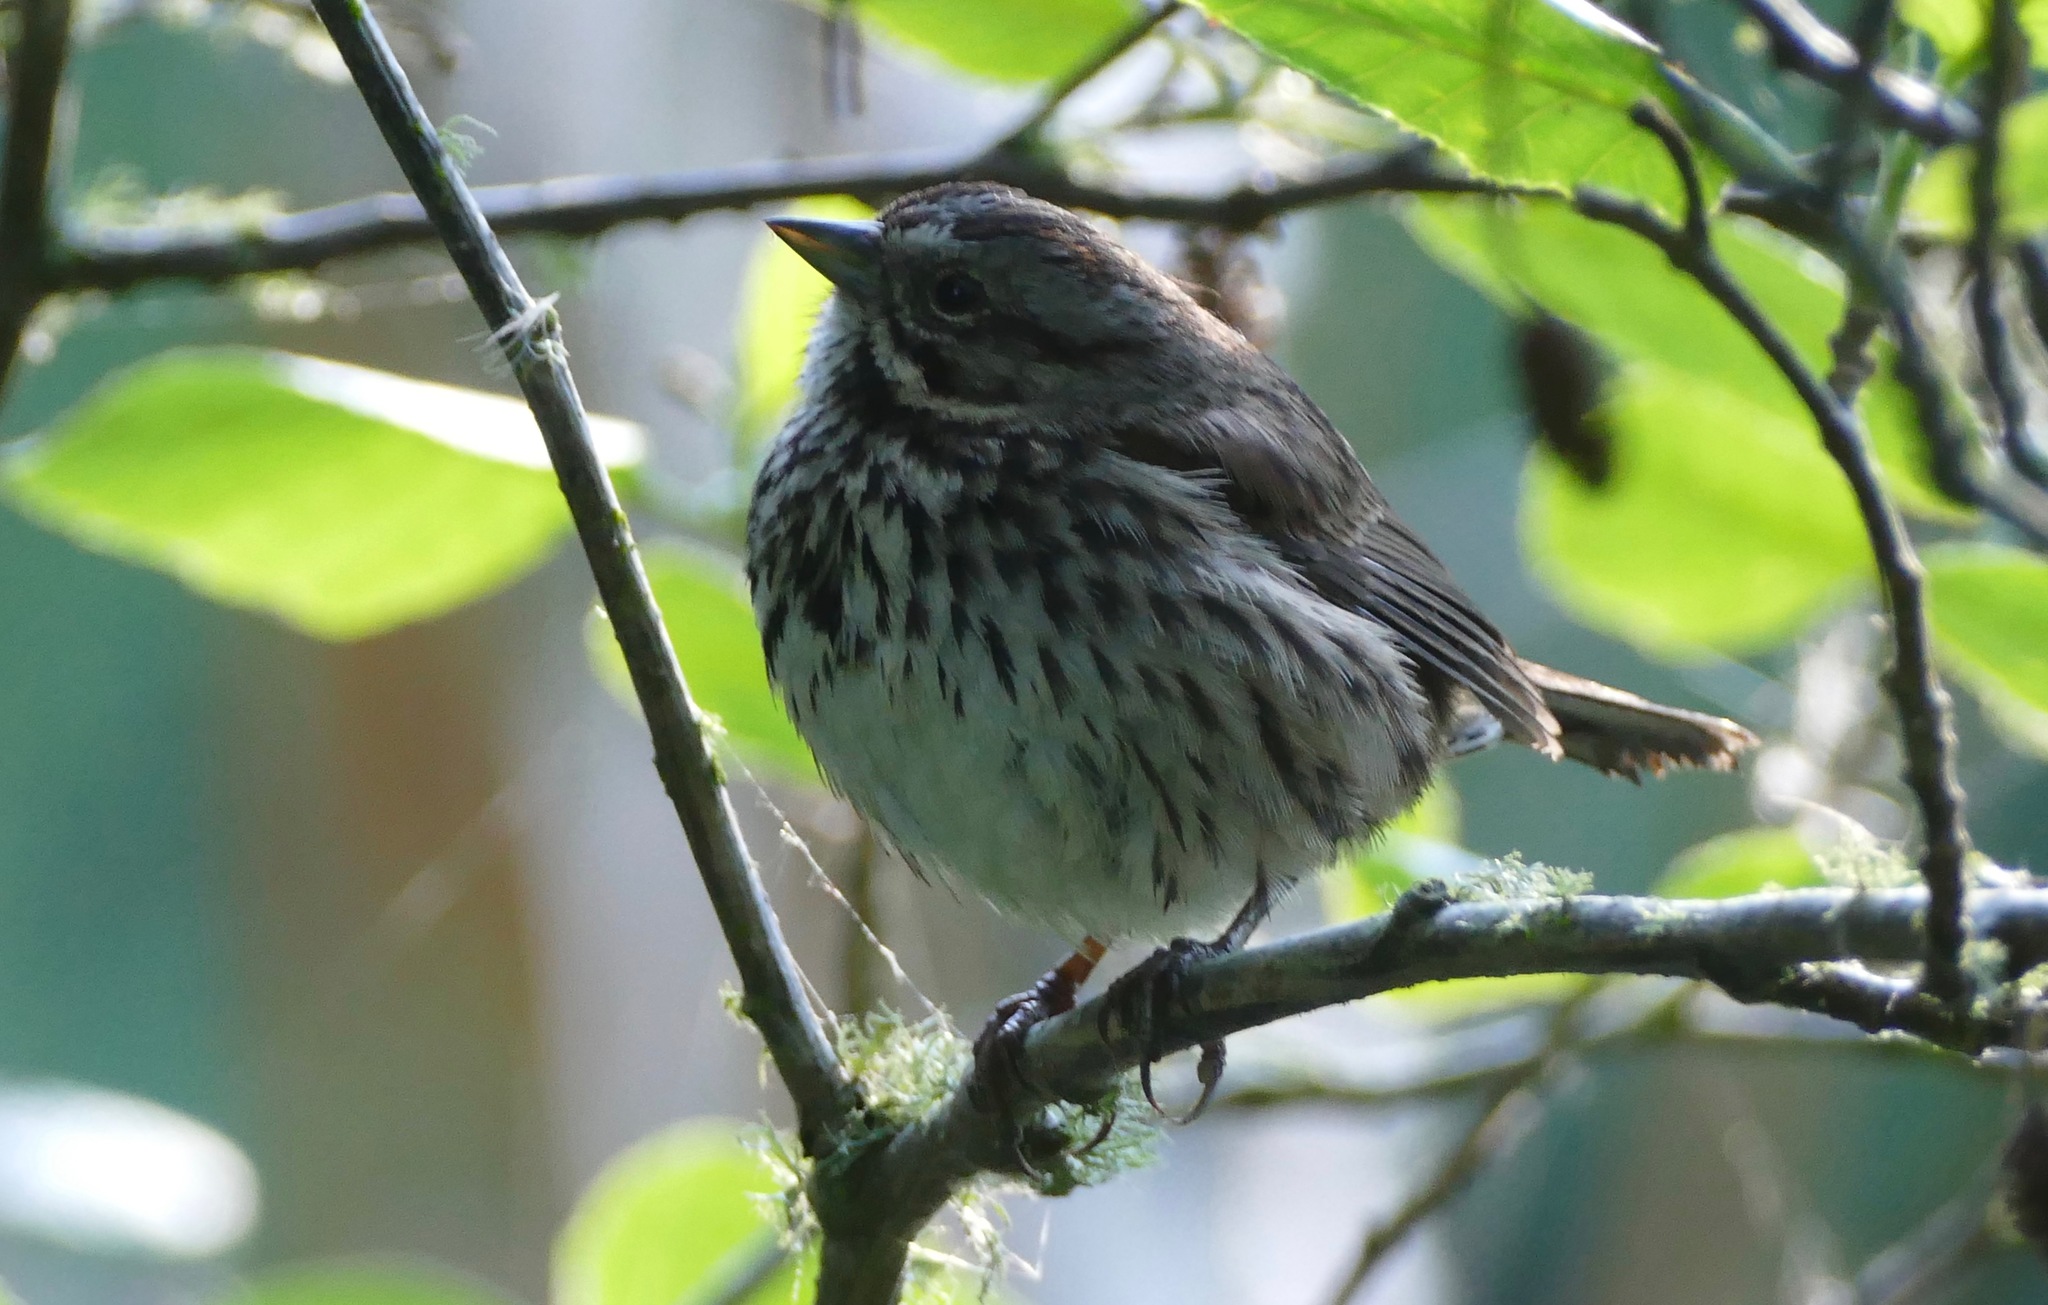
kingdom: Animalia
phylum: Chordata
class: Aves
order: Passeriformes
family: Passerellidae
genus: Melospiza
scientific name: Melospiza melodia
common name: Song sparrow
